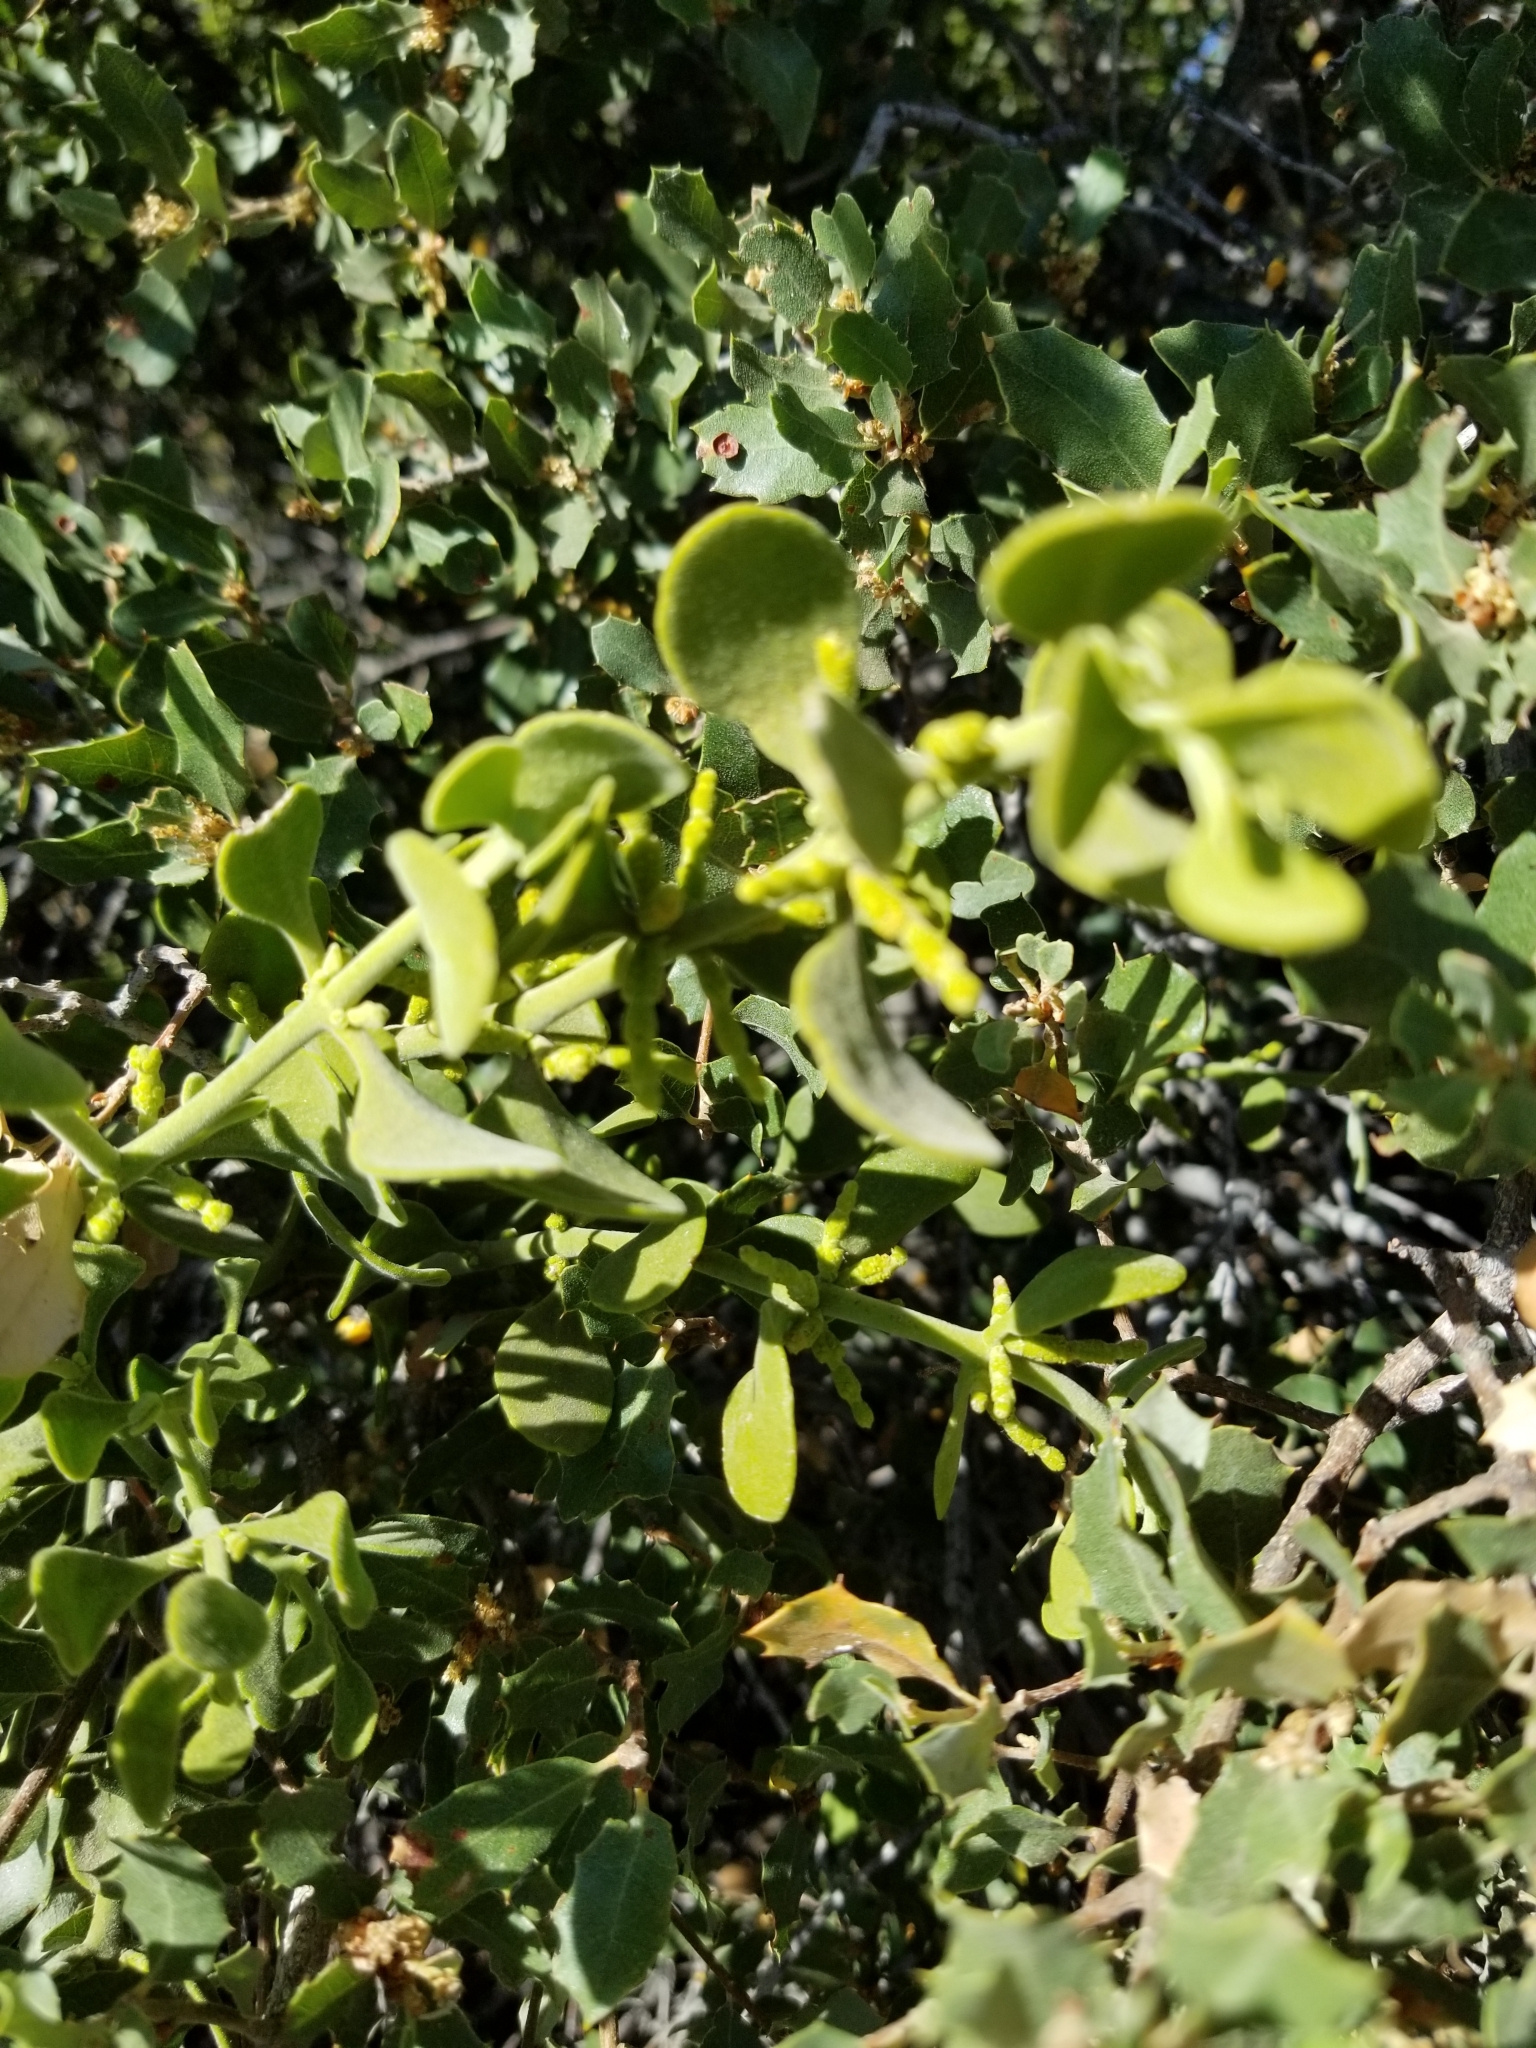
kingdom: Plantae
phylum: Tracheophyta
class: Magnoliopsida
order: Santalales
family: Viscaceae
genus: Phoradendron
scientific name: Phoradendron leucarpum
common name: Pacific mistletoe
